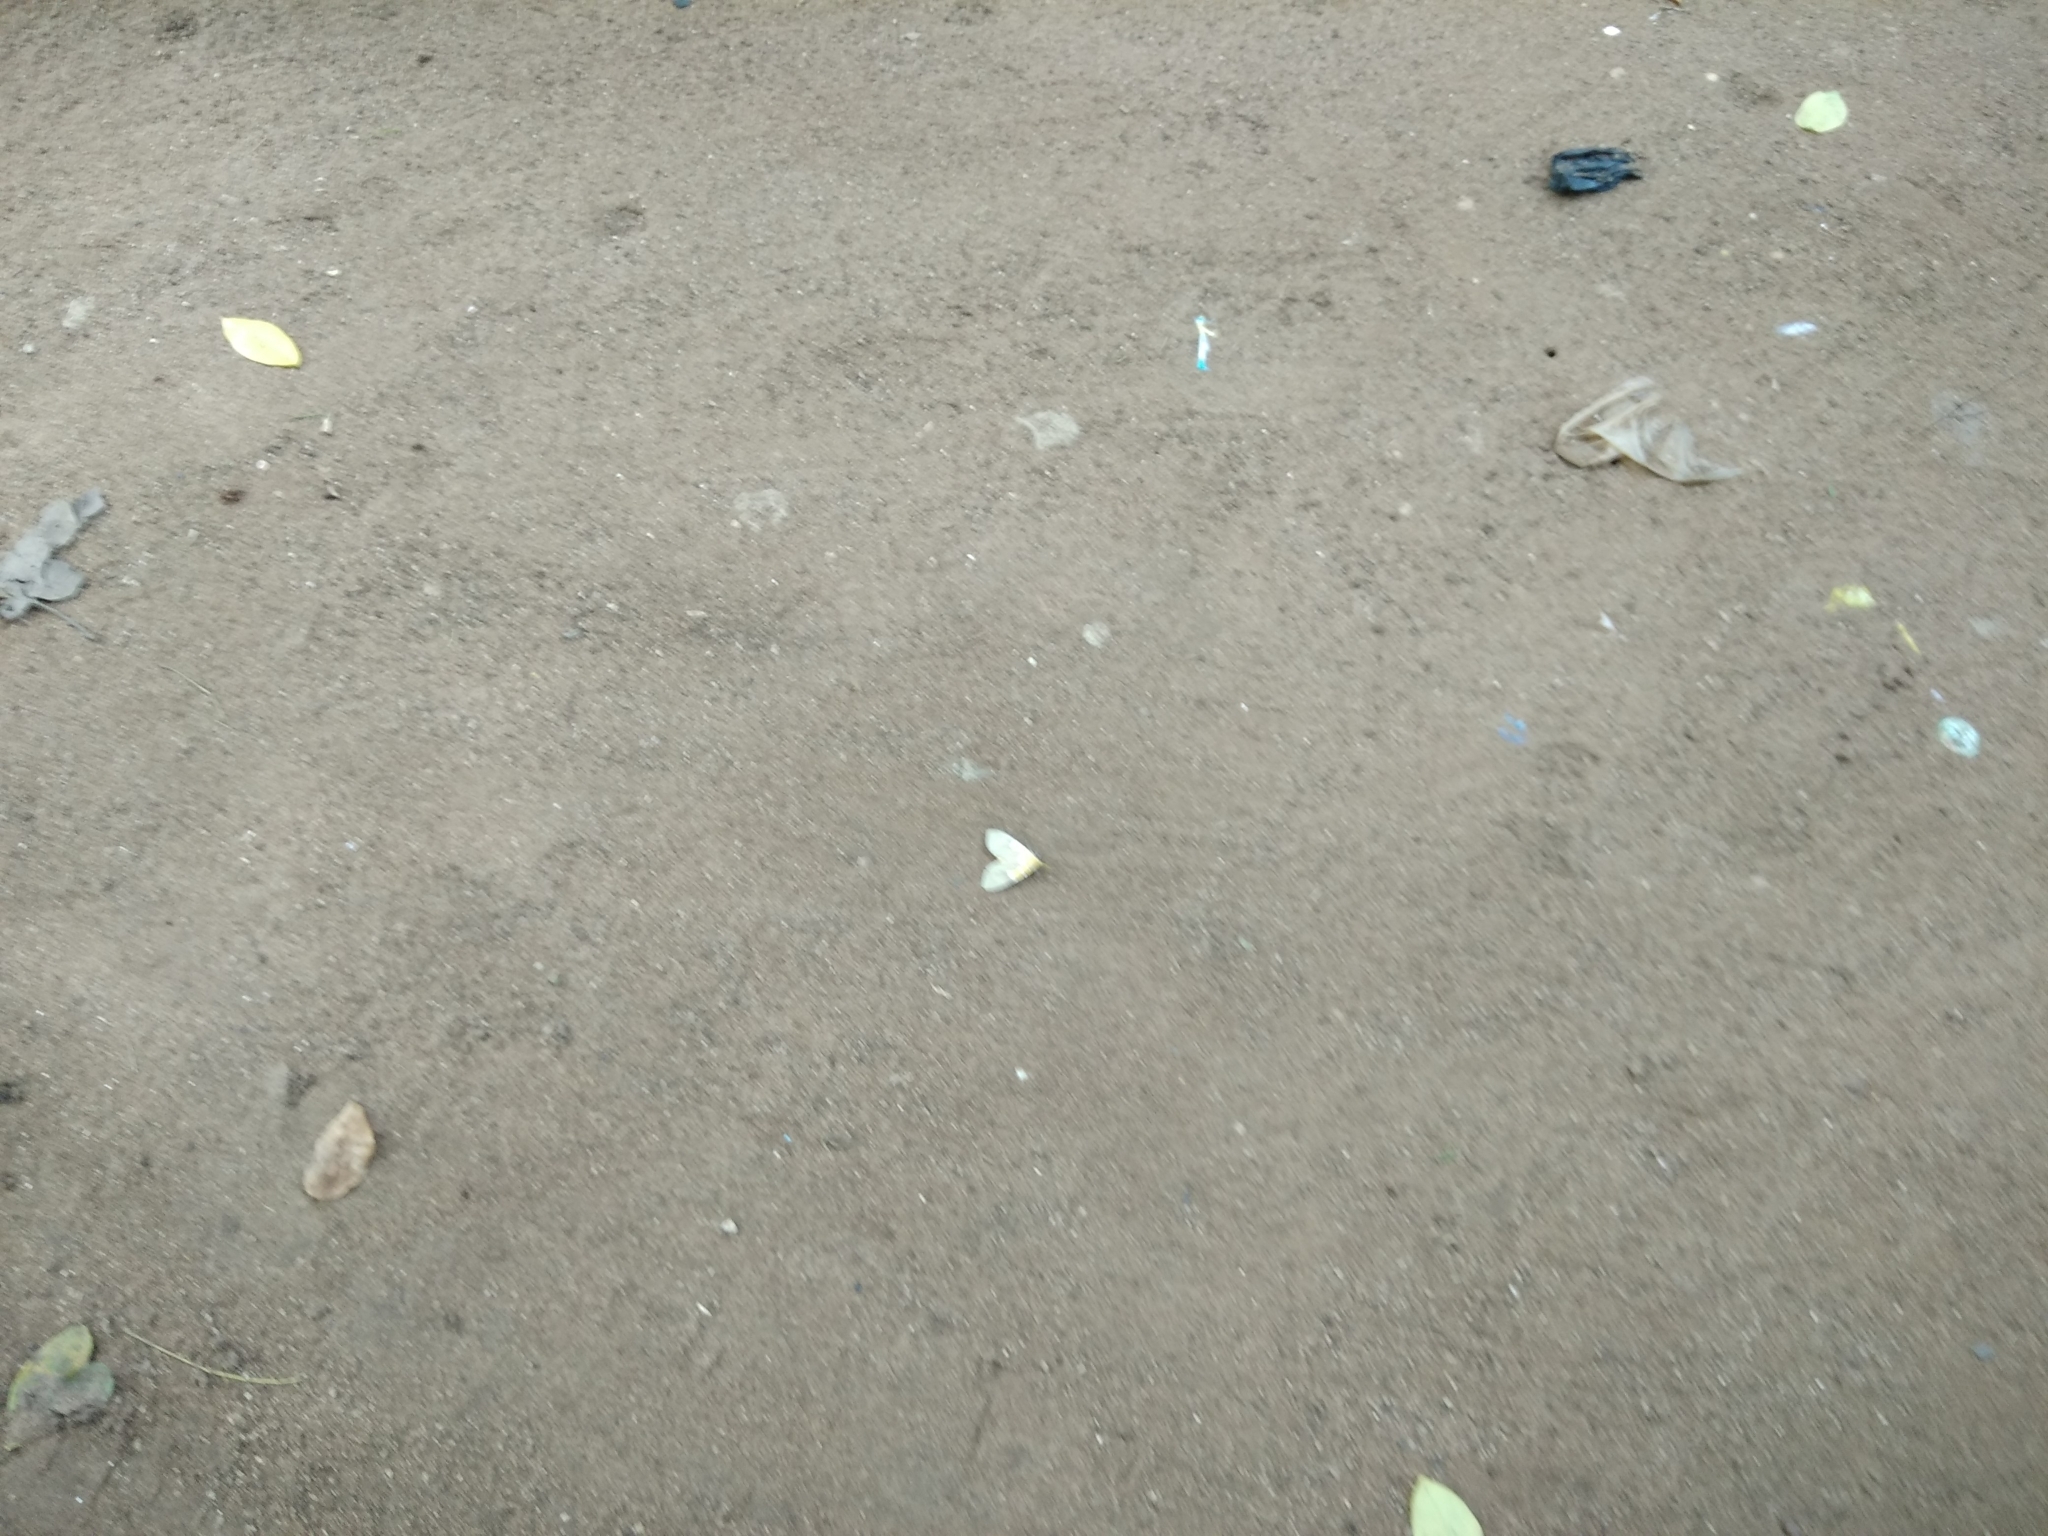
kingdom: Animalia
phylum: Arthropoda
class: Insecta
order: Lepidoptera
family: Erebidae
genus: Asota
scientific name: Asota speciosa
